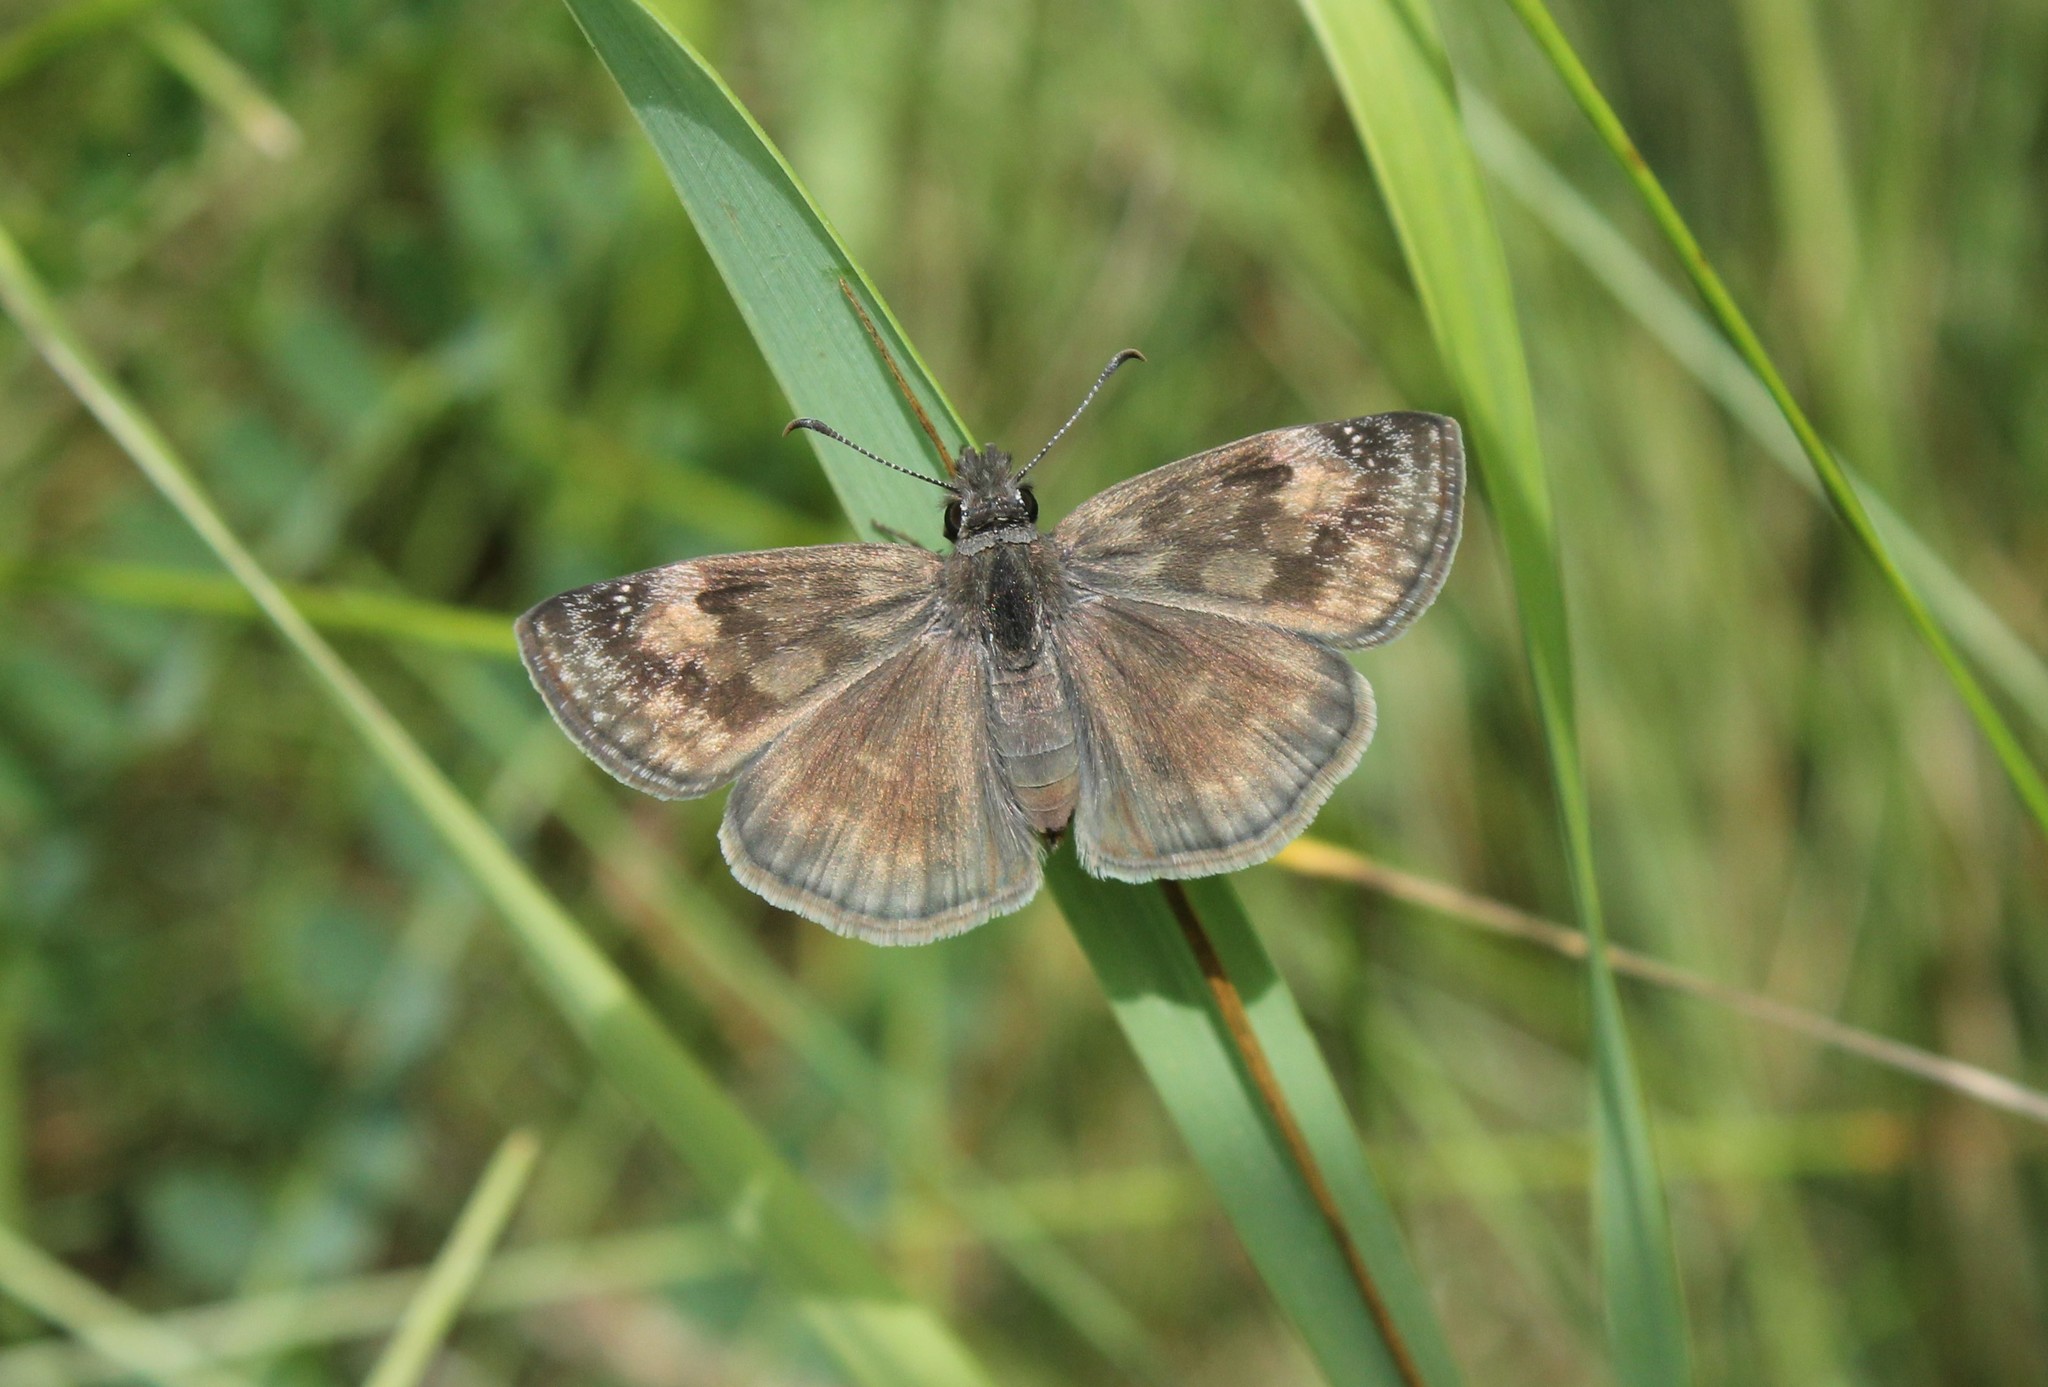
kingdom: Animalia
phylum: Arthropoda
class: Insecta
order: Lepidoptera
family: Hesperiidae
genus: Erynnis
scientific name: Erynnis baptisiae
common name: Wild indigo duskywing
